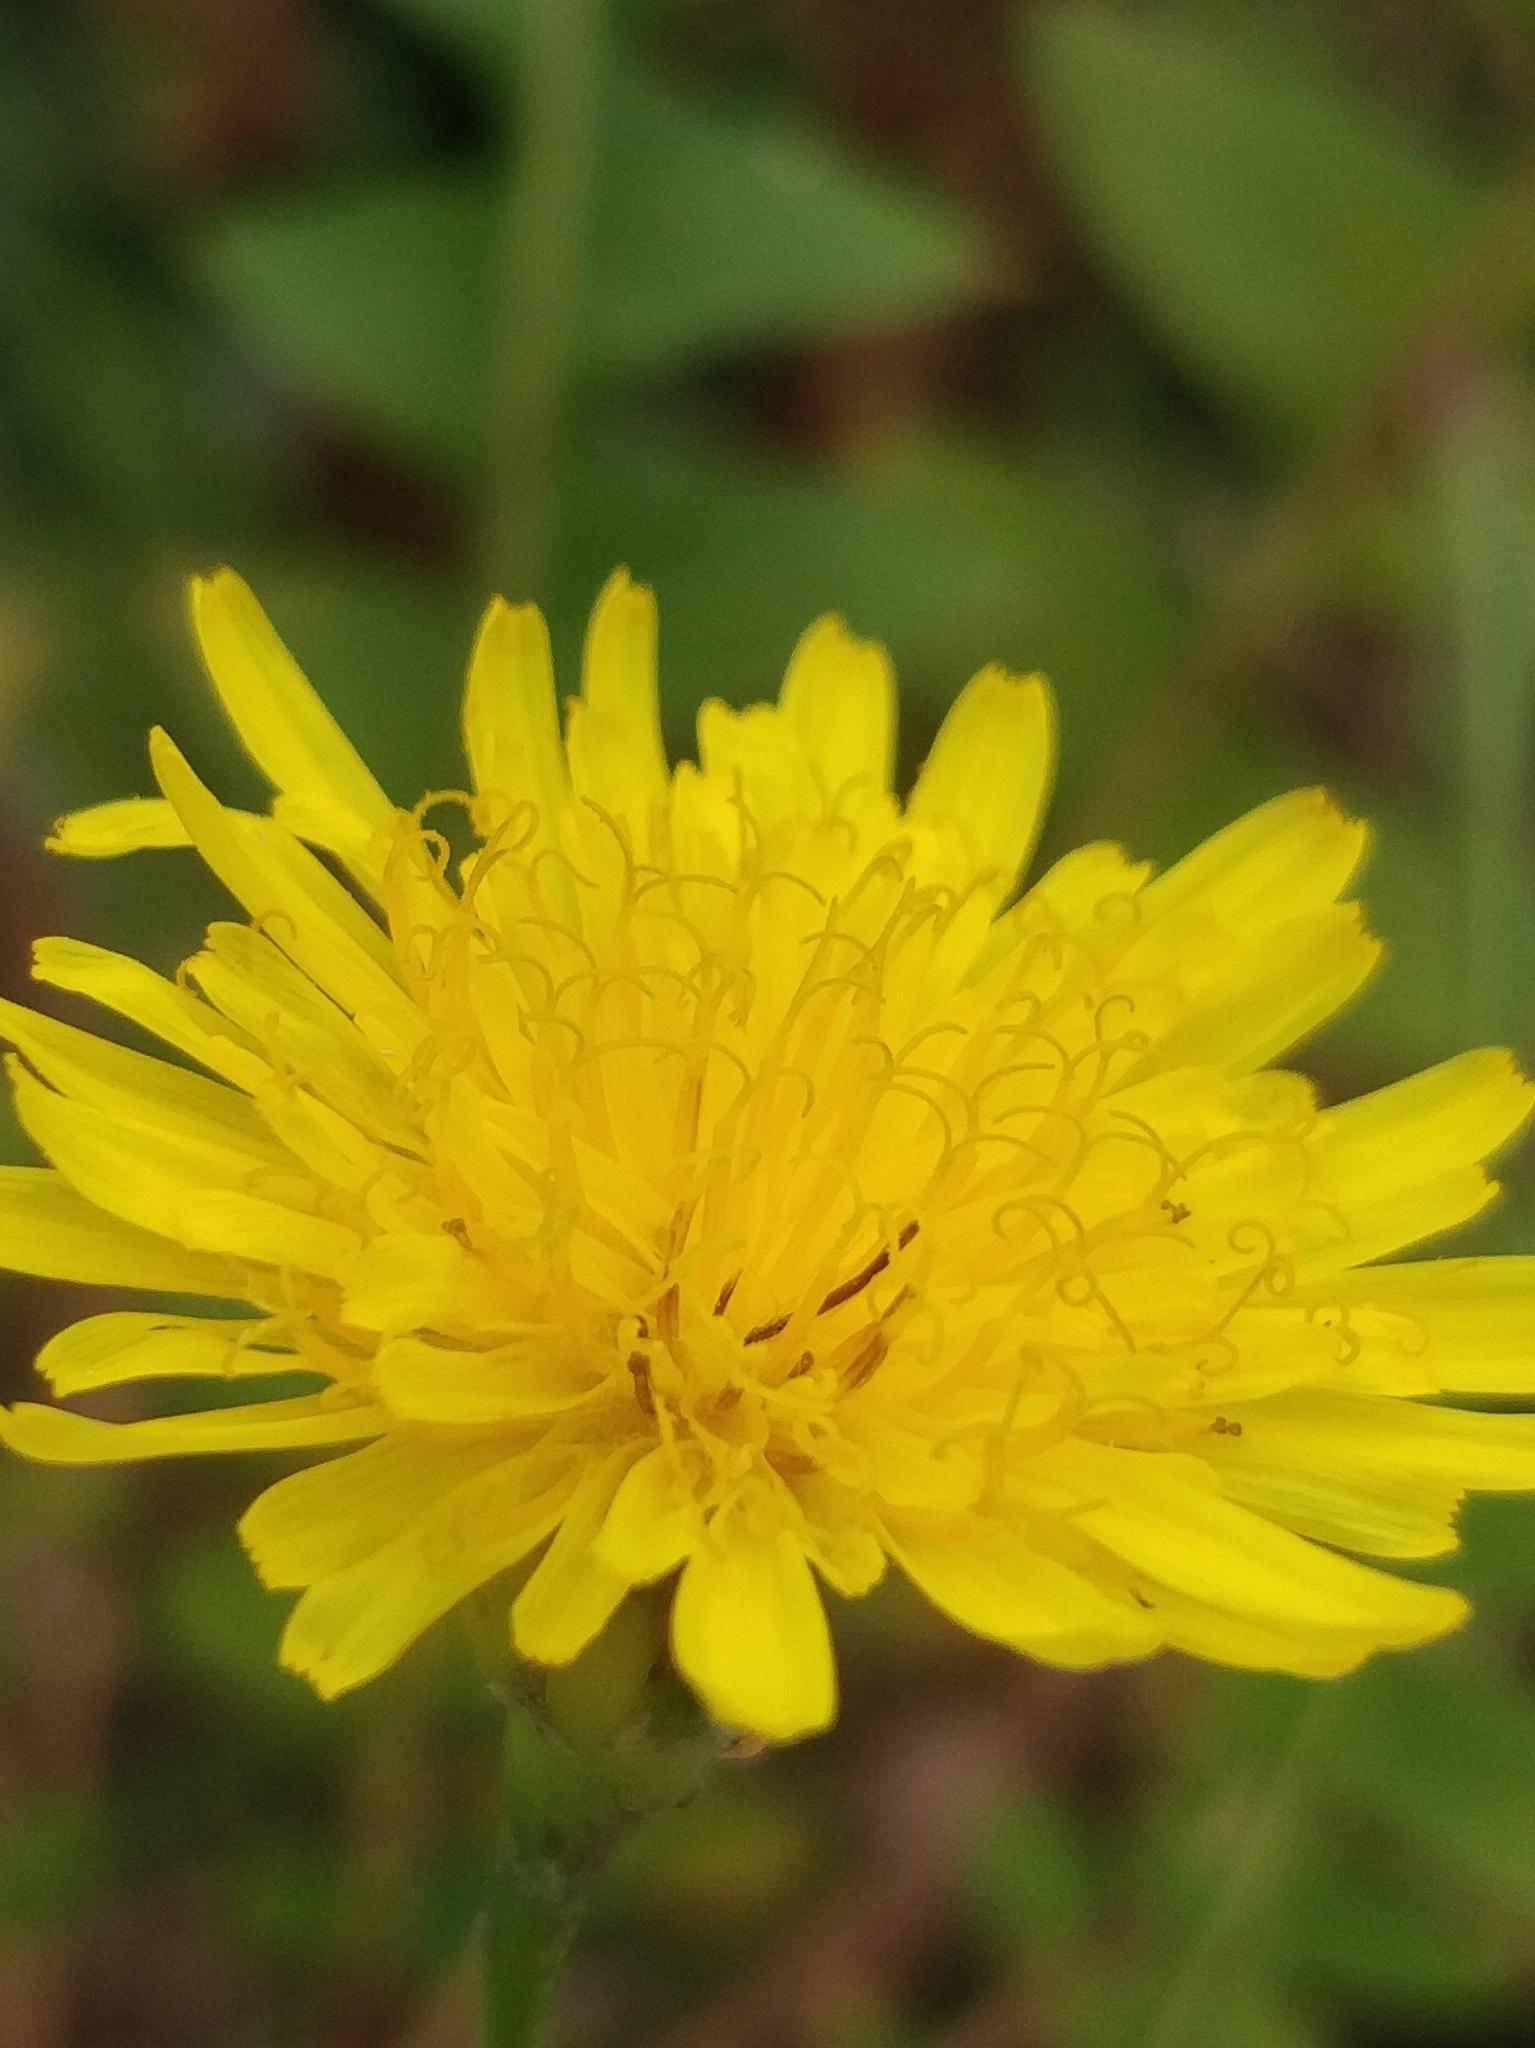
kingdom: Plantae
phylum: Tracheophyta
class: Magnoliopsida
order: Asterales
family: Asteraceae
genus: Sonchus
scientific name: Sonchus pinnatus
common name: Wing-leaved sow-thistle
